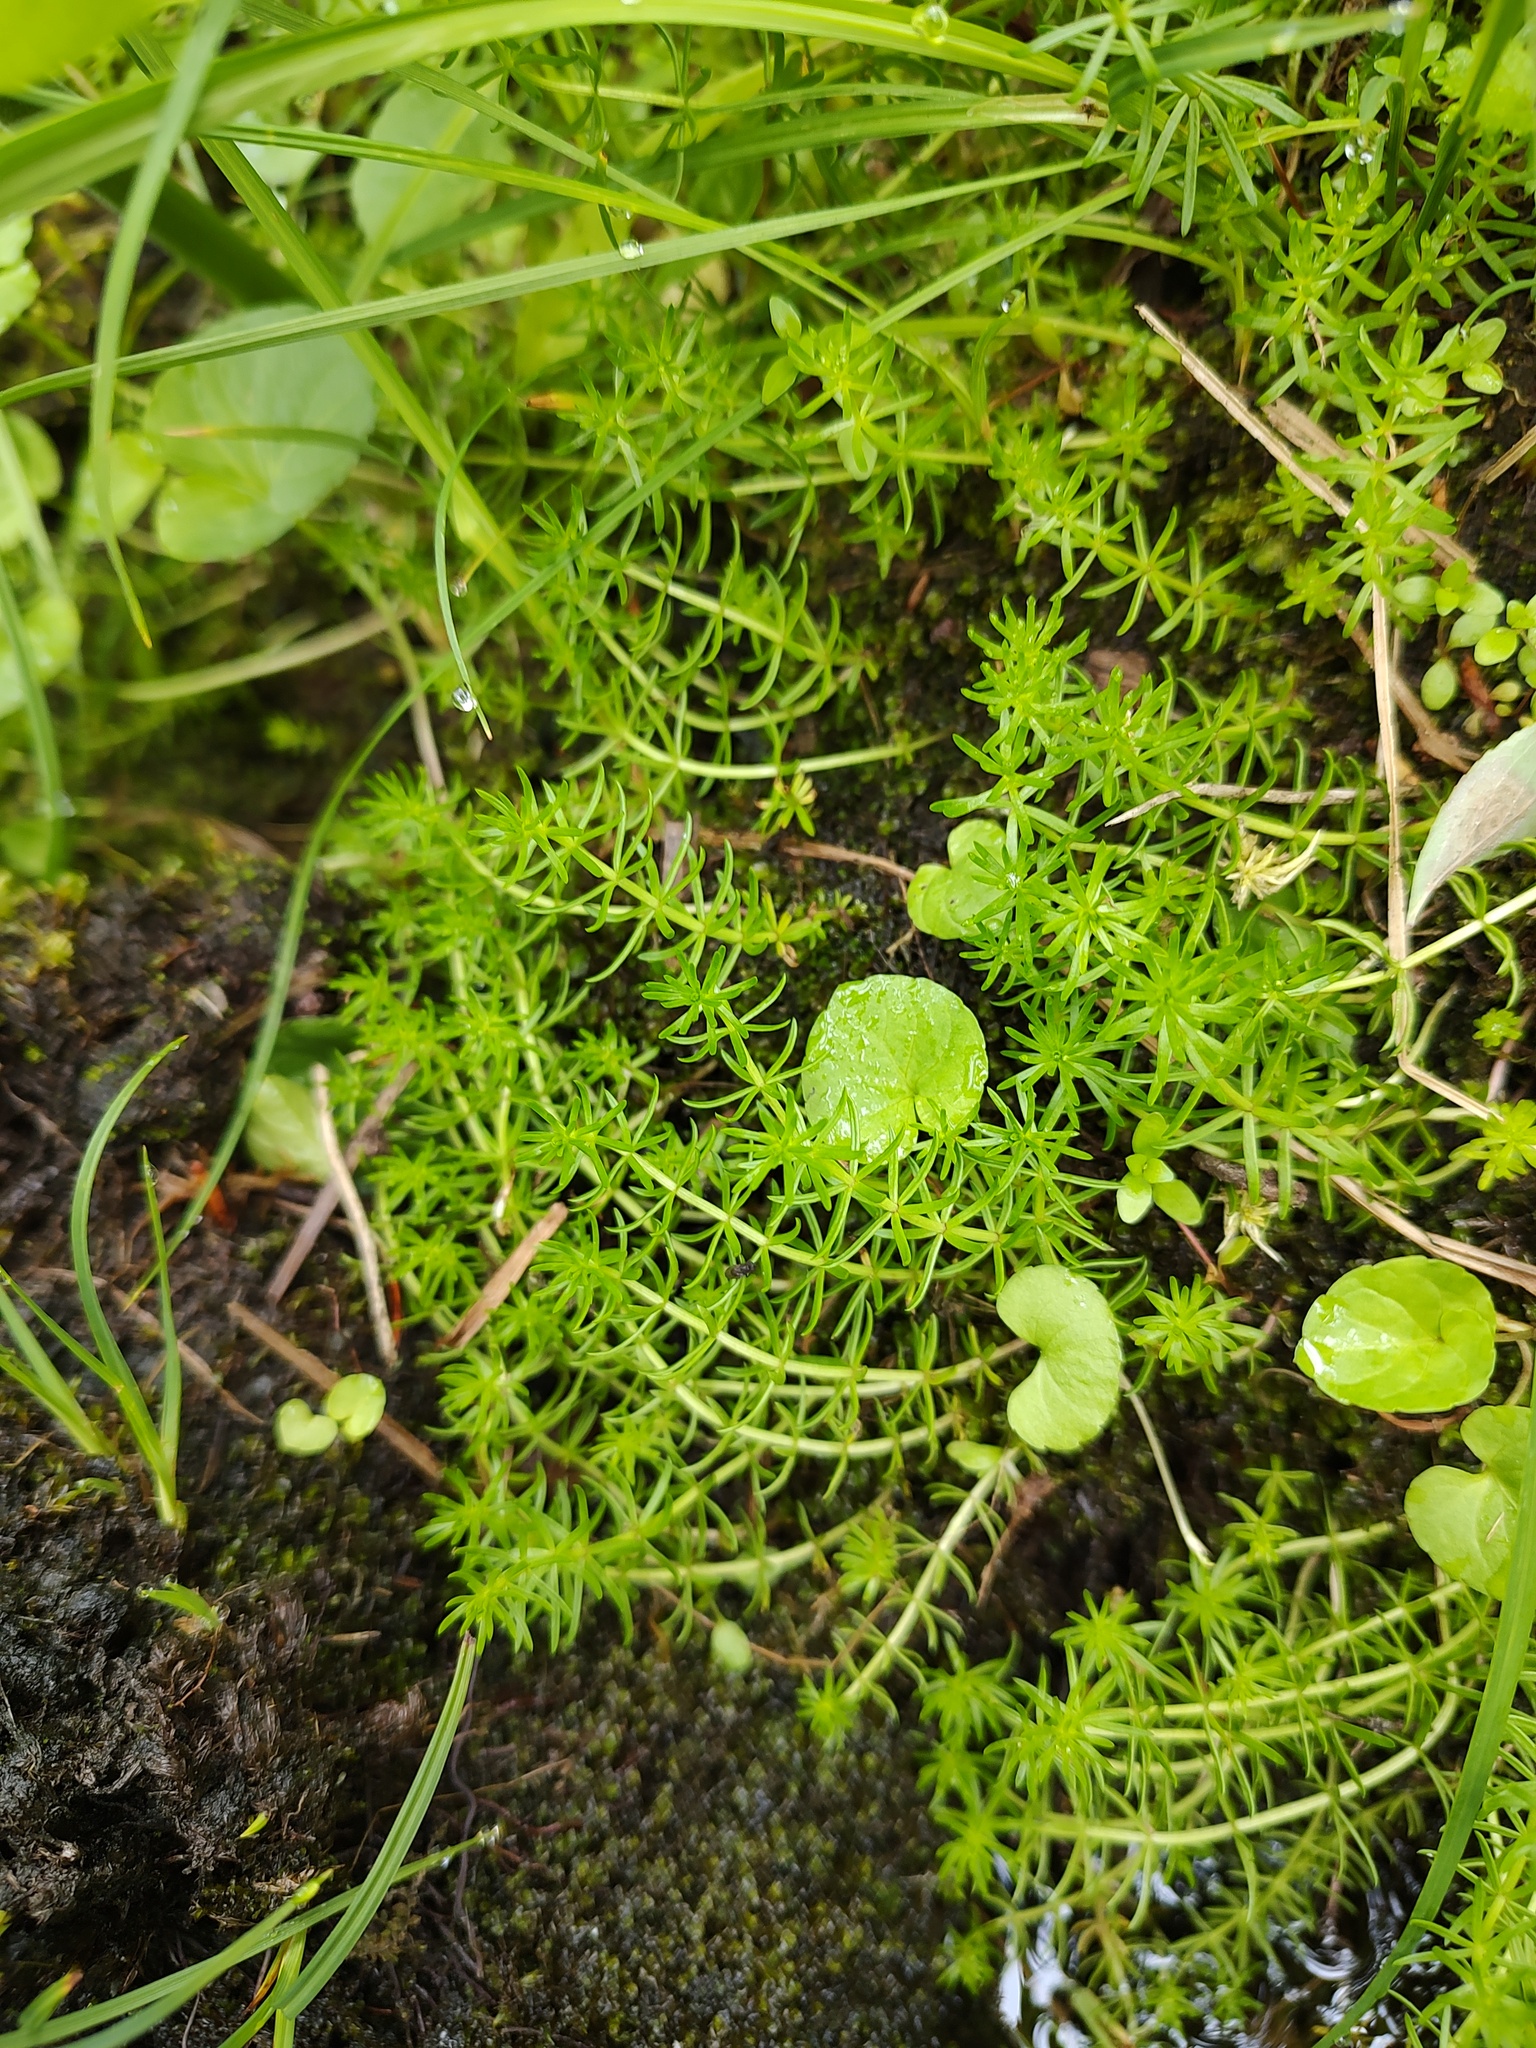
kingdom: Plantae
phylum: Tracheophyta
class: Magnoliopsida
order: Lamiales
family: Plantaginaceae
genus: Hippuris
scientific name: Hippuris montana
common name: Mountain mare's-tail
